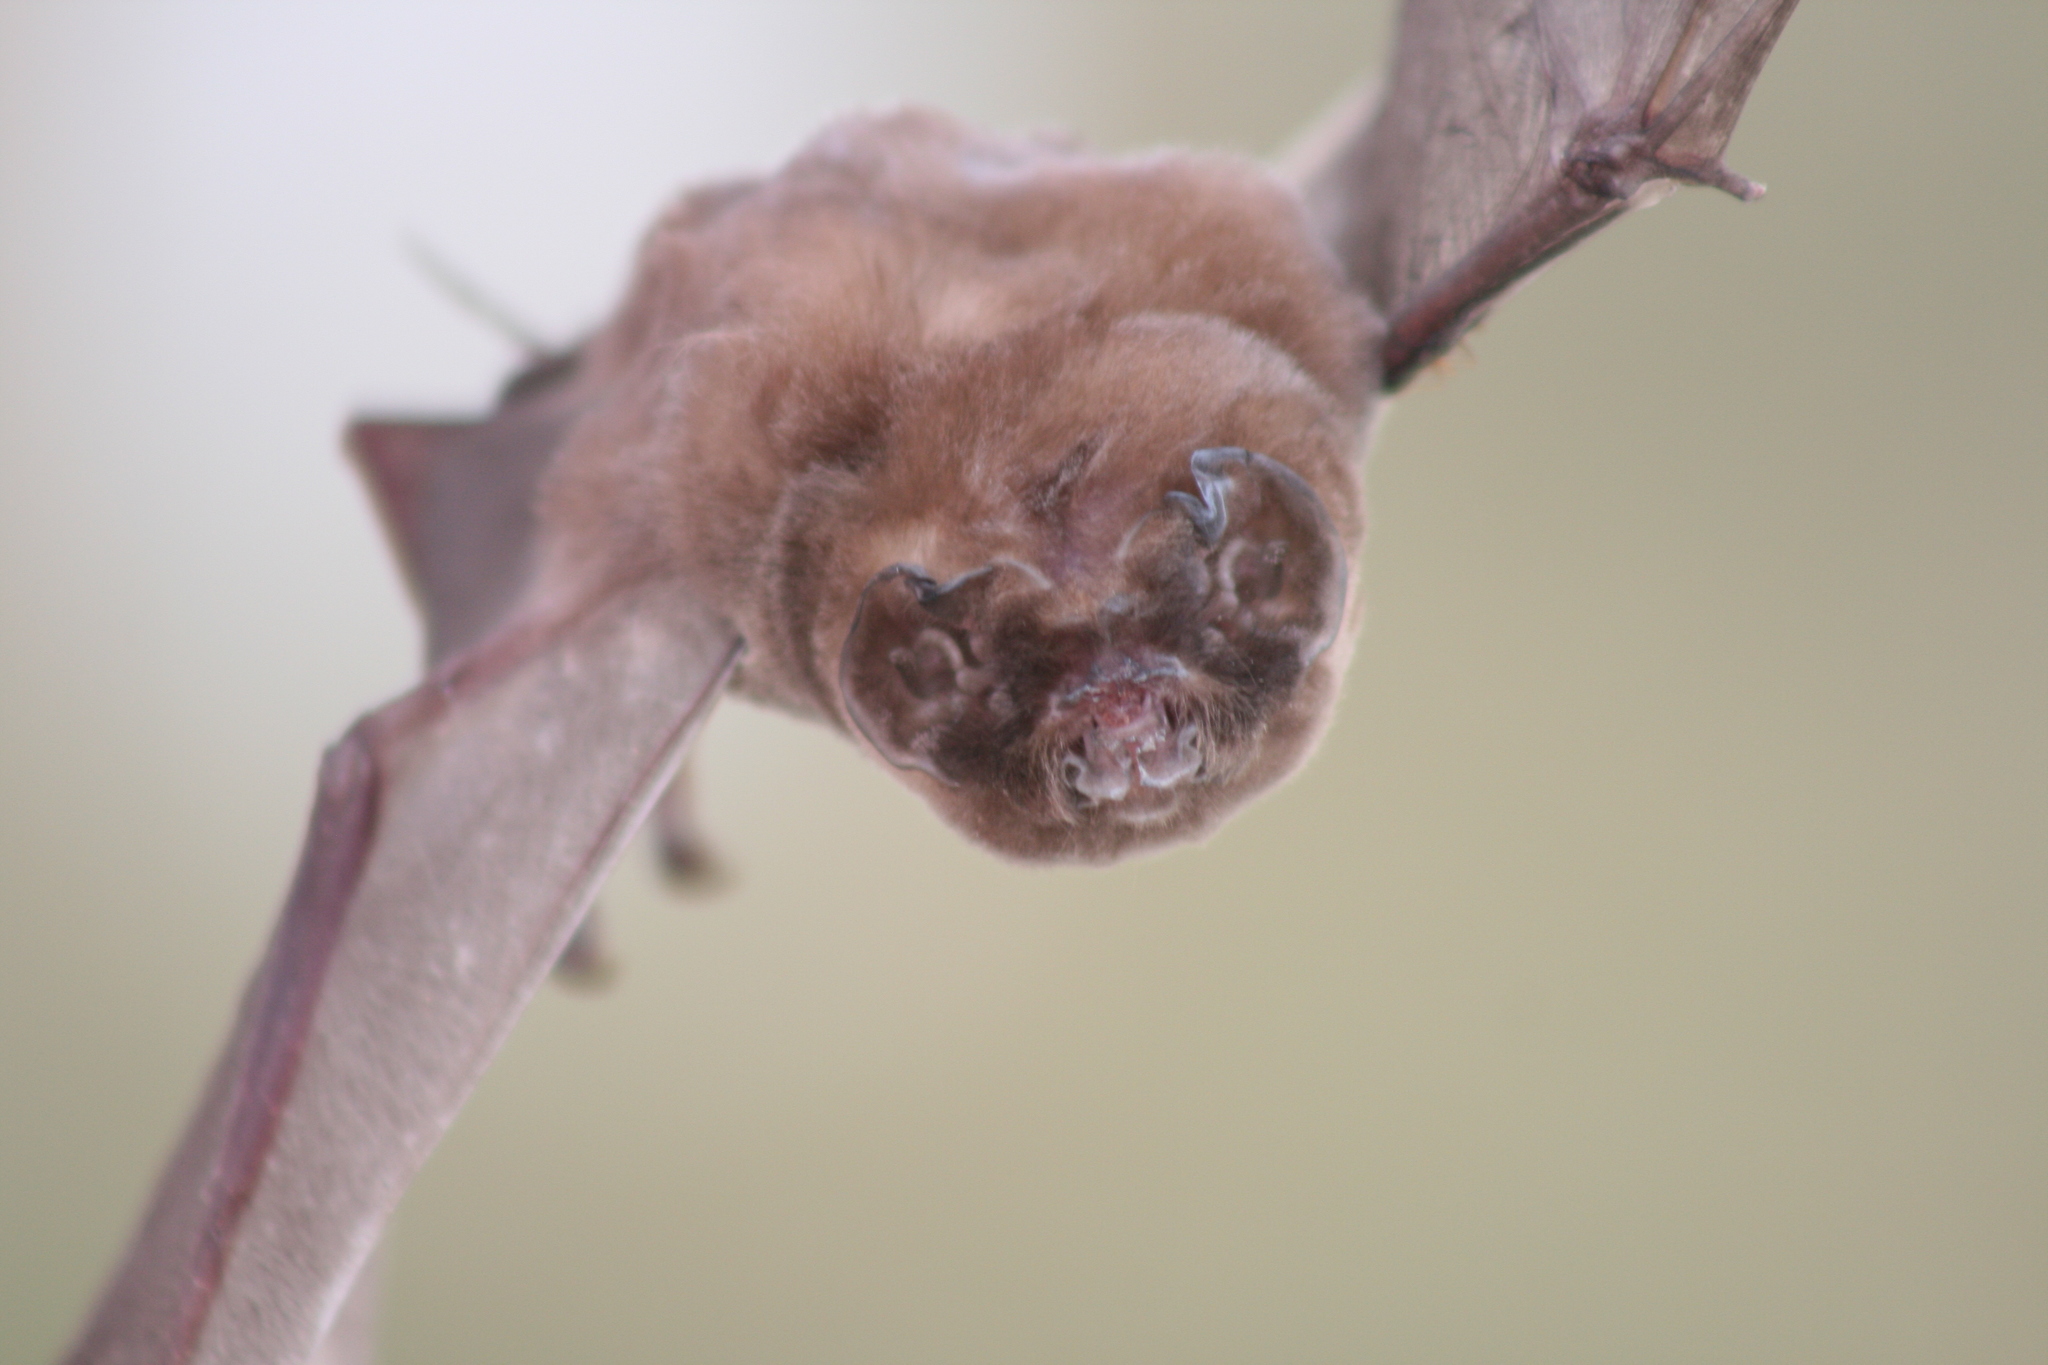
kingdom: Animalia
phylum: Chordata
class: Mammalia
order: Chiroptera
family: Mormoopidae
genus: Mormoops
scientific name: Mormoops megalophylla
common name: Peters's ghost-faced bat
